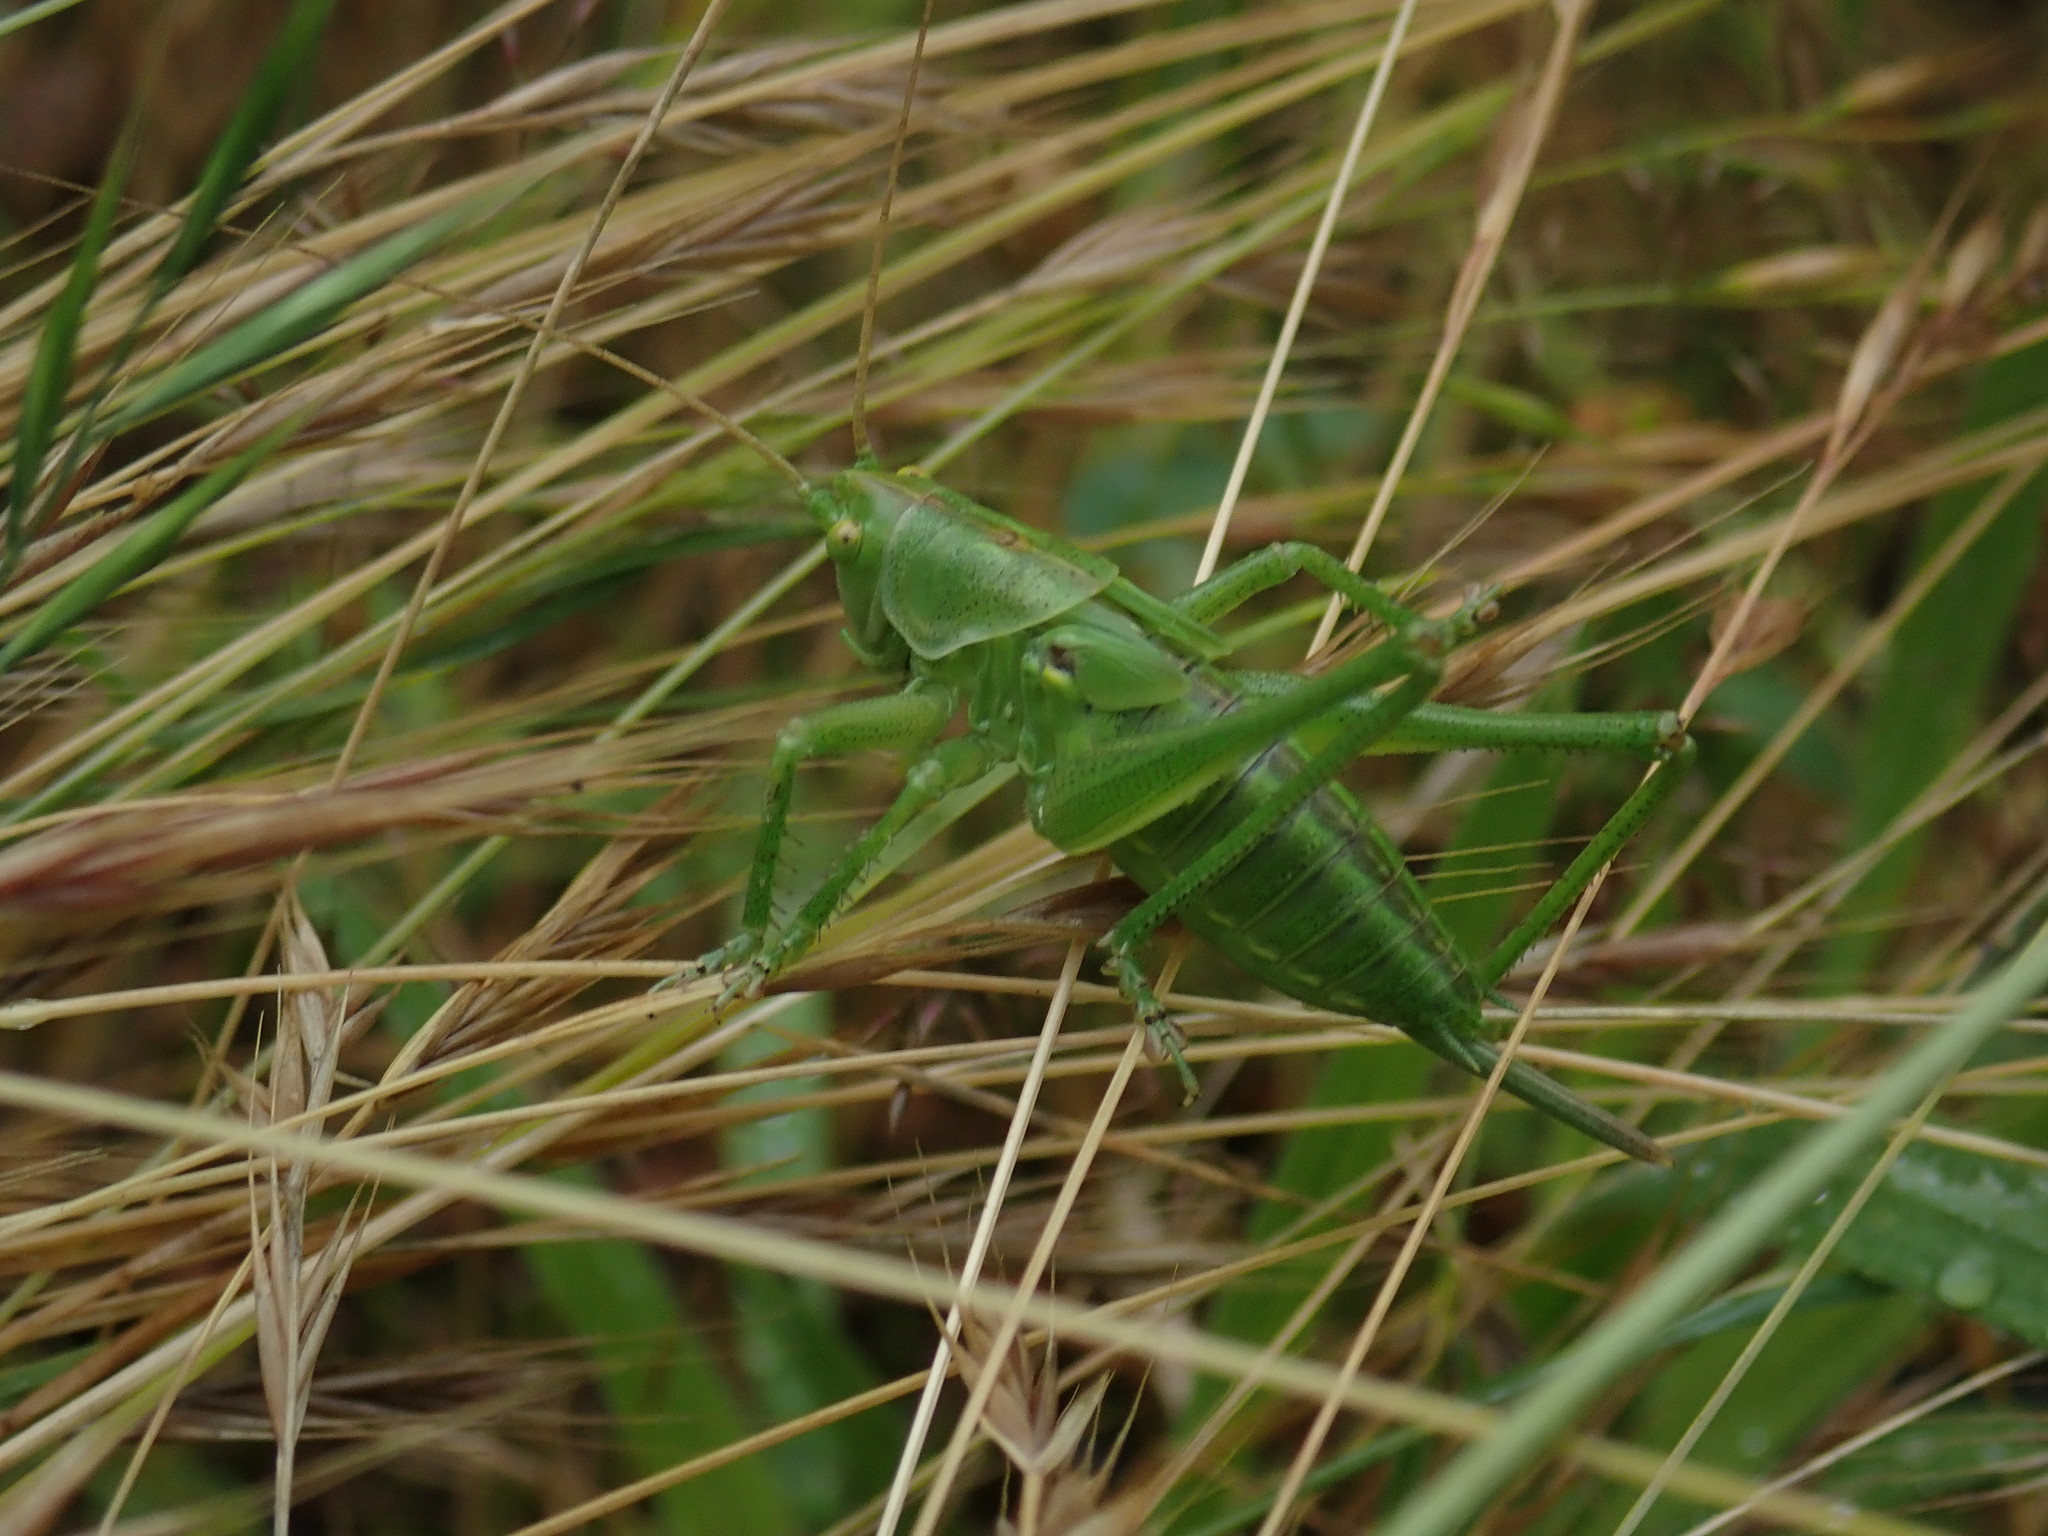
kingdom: Animalia
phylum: Arthropoda
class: Insecta
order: Orthoptera
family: Tettigoniidae
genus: Tettigonia
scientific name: Tettigonia viridissima
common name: Great green bush-cricket
